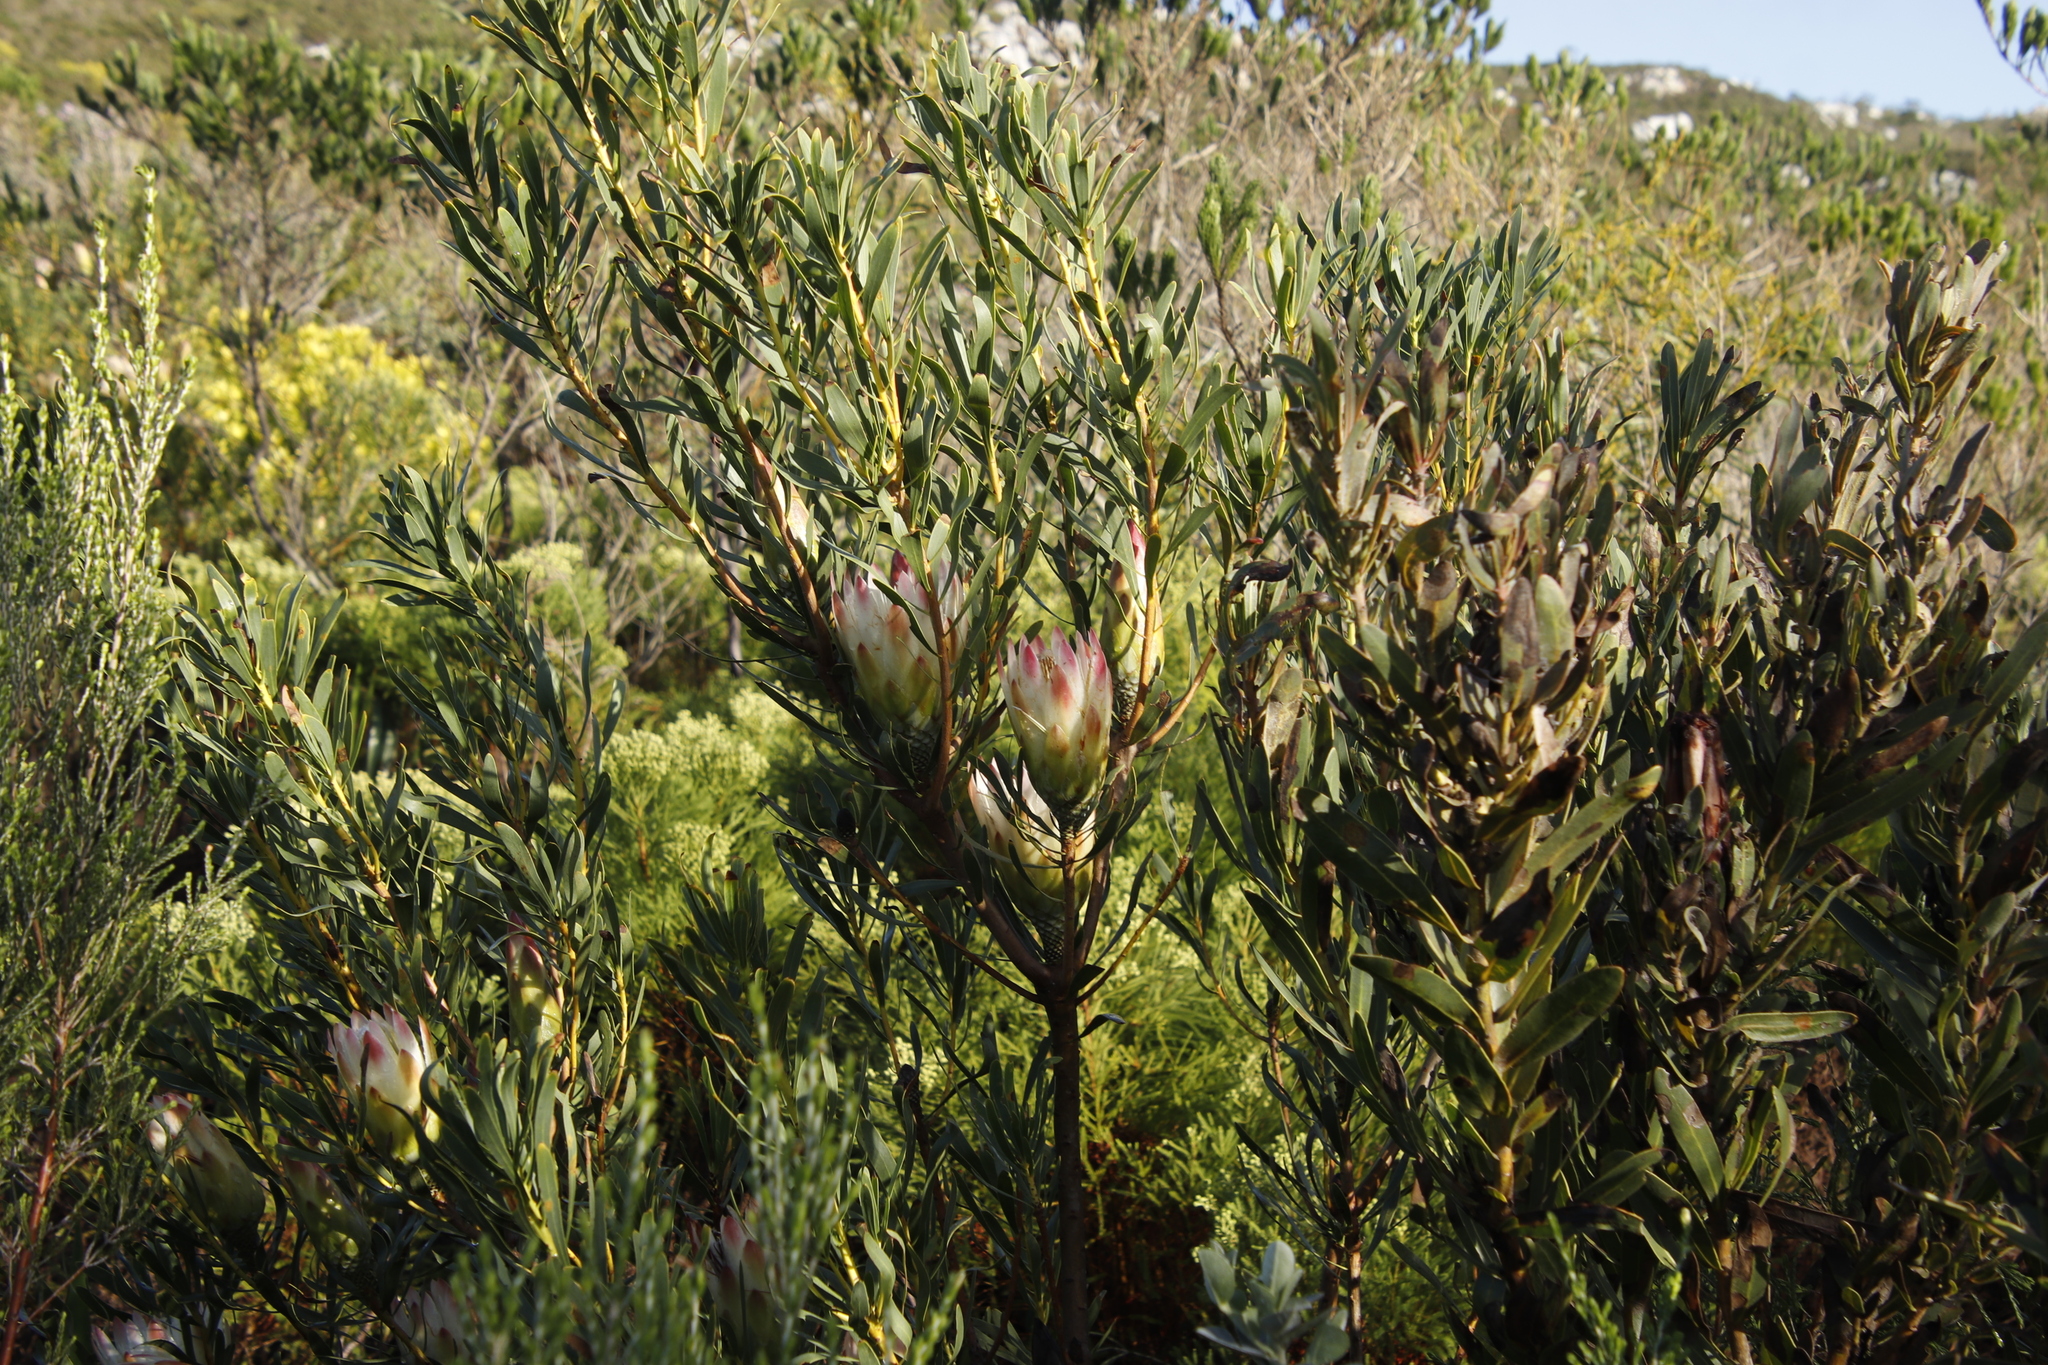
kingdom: Plantae
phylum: Tracheophyta
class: Magnoliopsida
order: Proteales
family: Proteaceae
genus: Protea
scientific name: Protea repens
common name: Sugarbush
